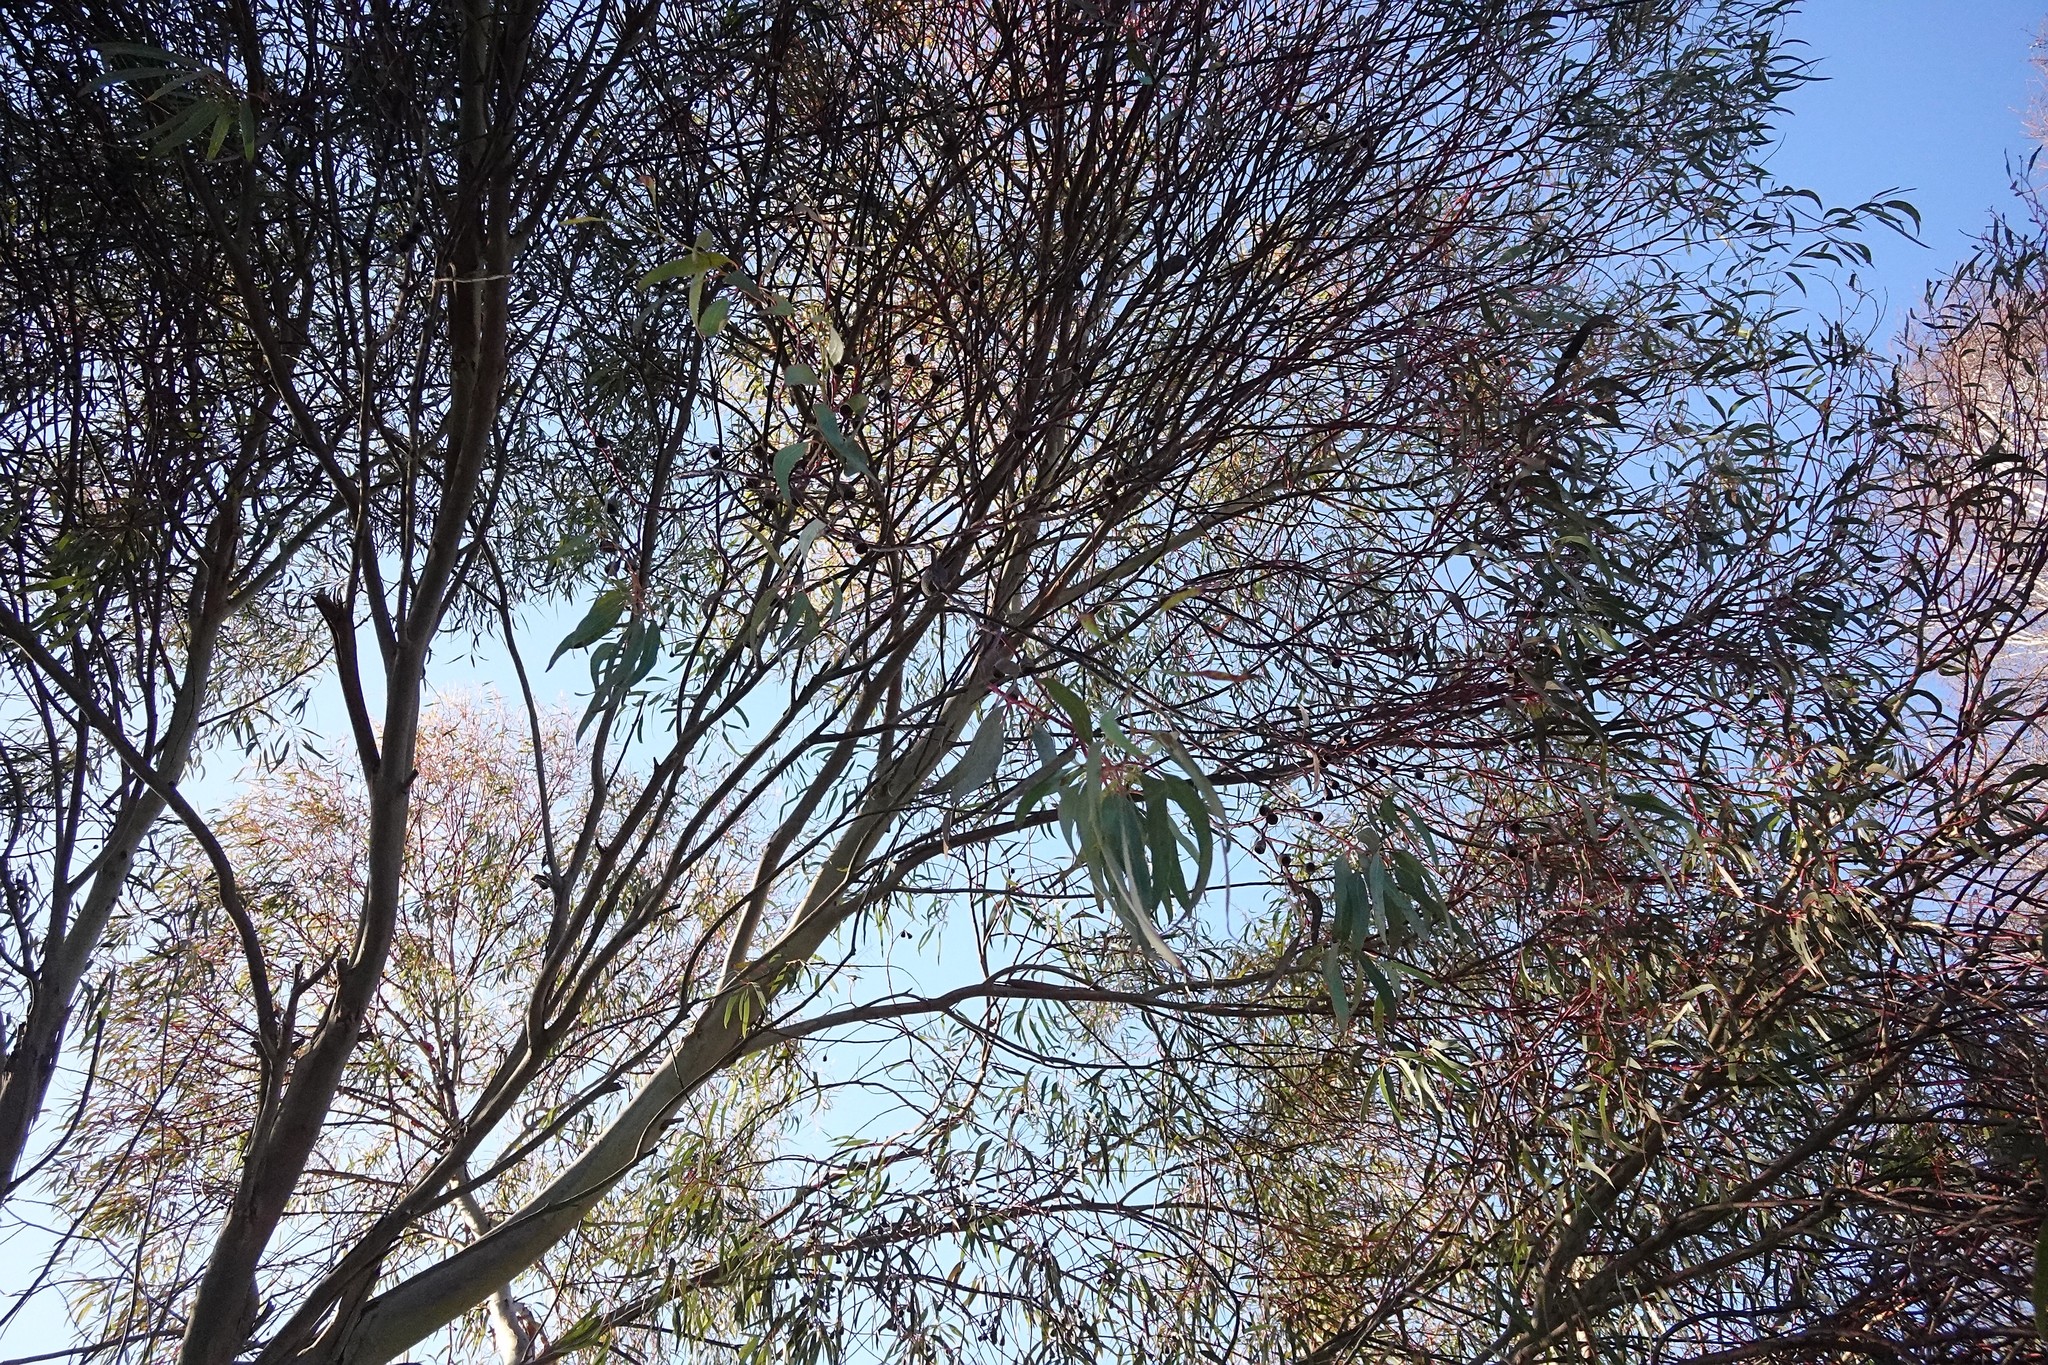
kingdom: Animalia
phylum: Arthropoda
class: Insecta
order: Lepidoptera
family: Saturniidae
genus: Opodiphthera
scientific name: Opodiphthera
